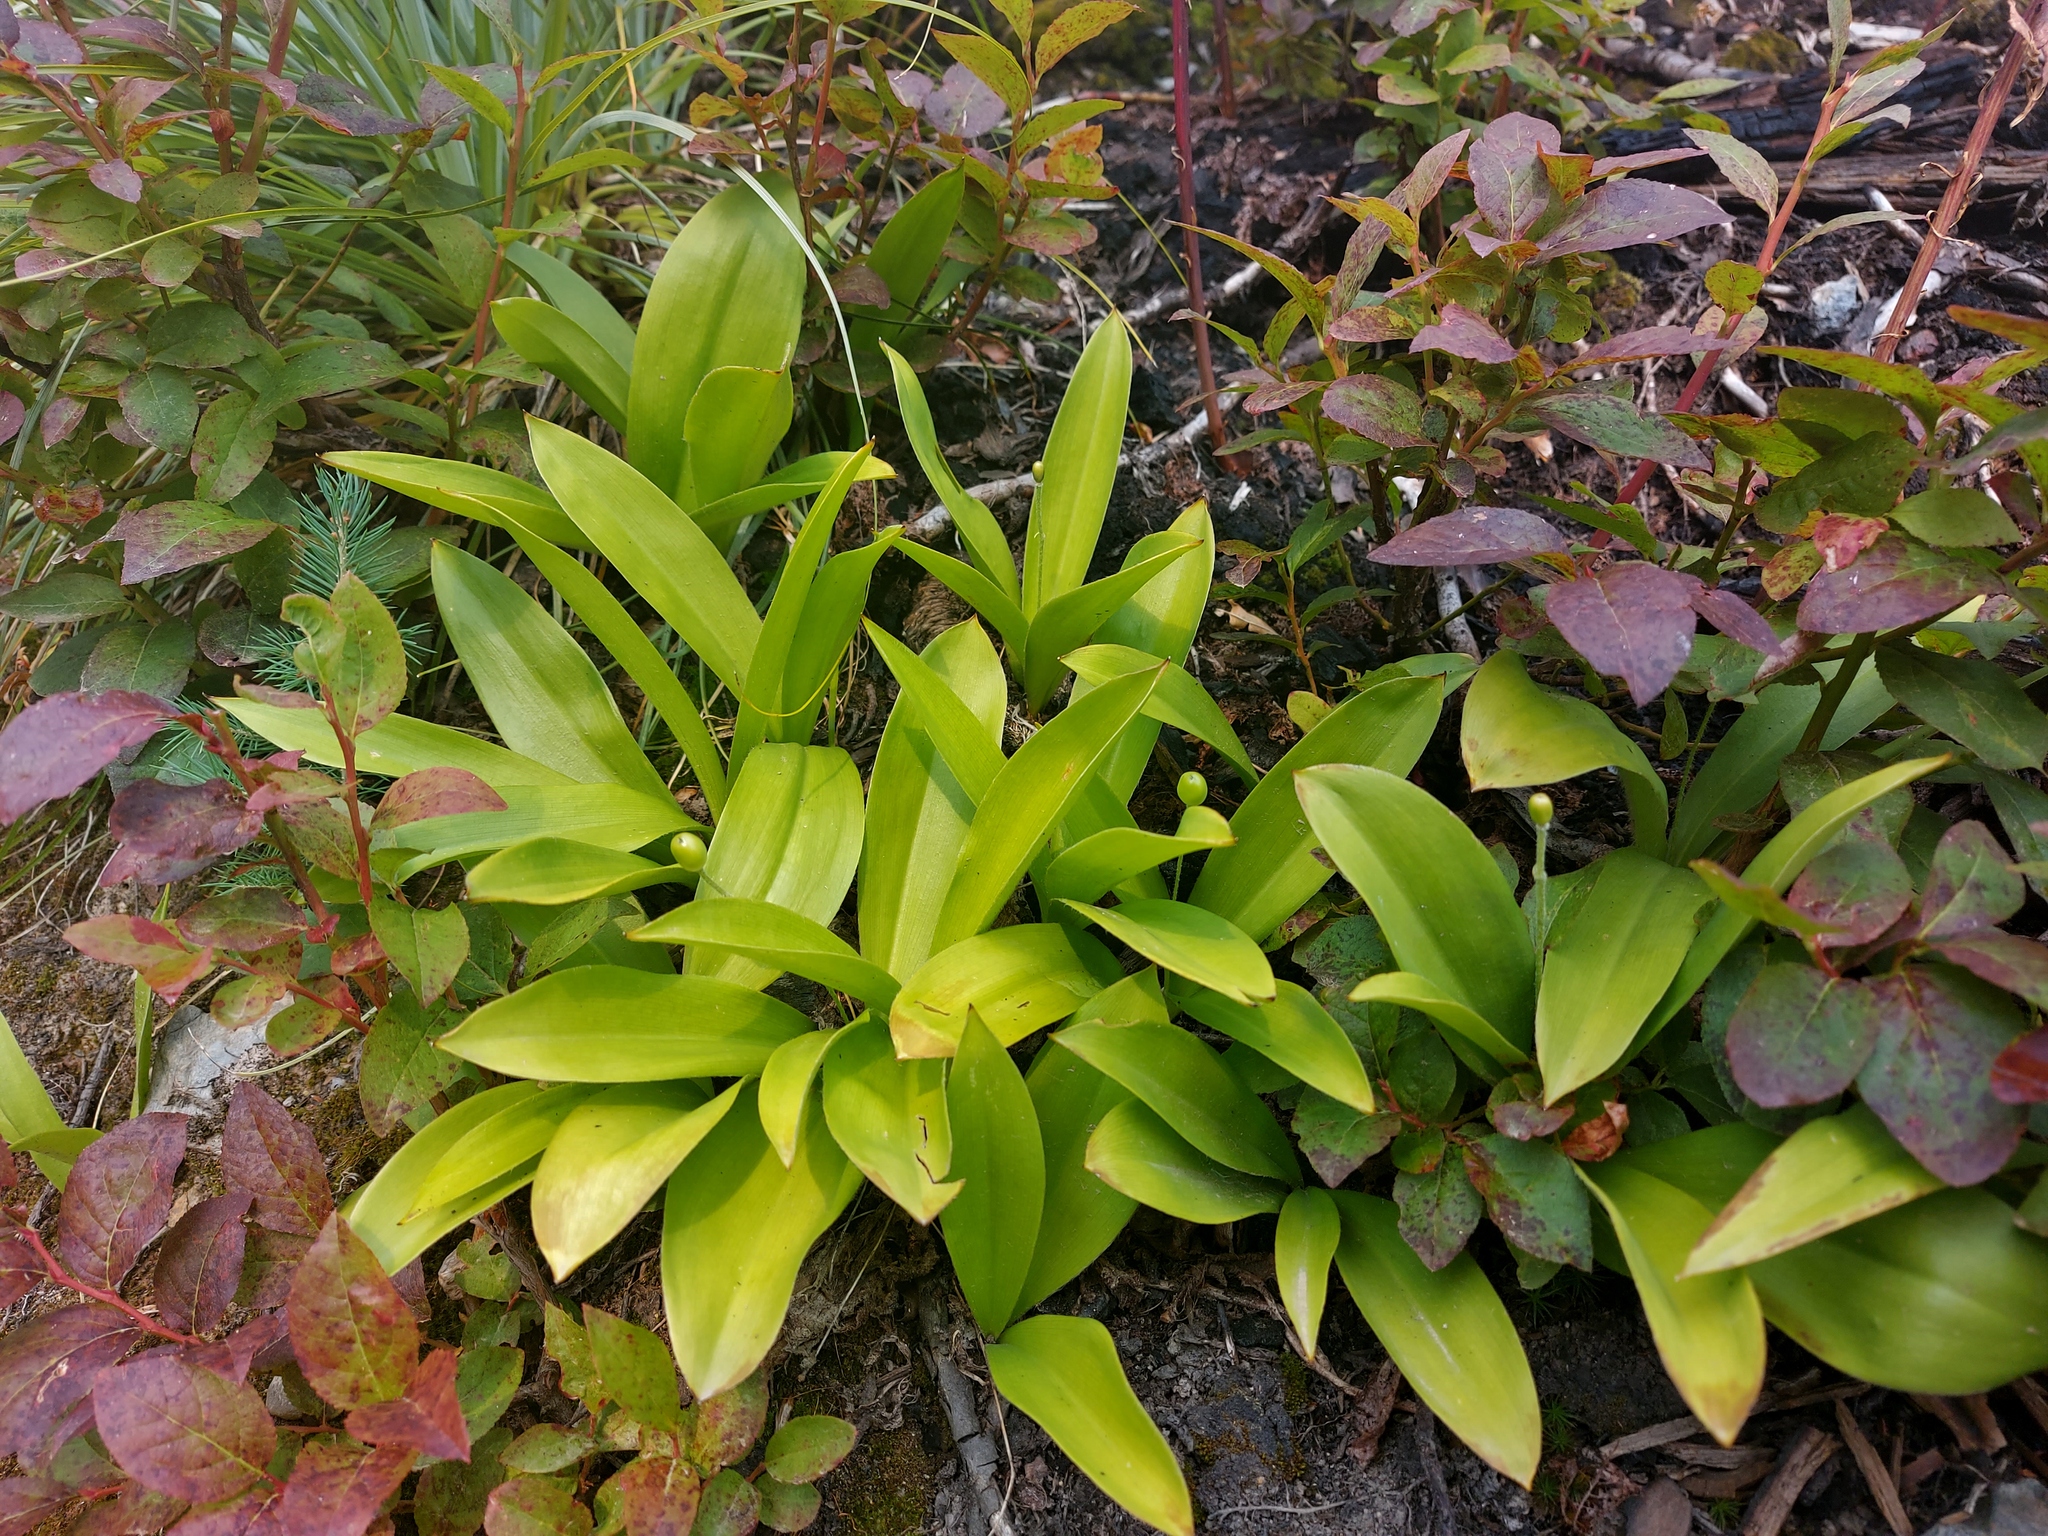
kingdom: Plantae
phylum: Tracheophyta
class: Liliopsida
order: Liliales
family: Liliaceae
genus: Clintonia
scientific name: Clintonia uniflora
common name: Queen's cup
